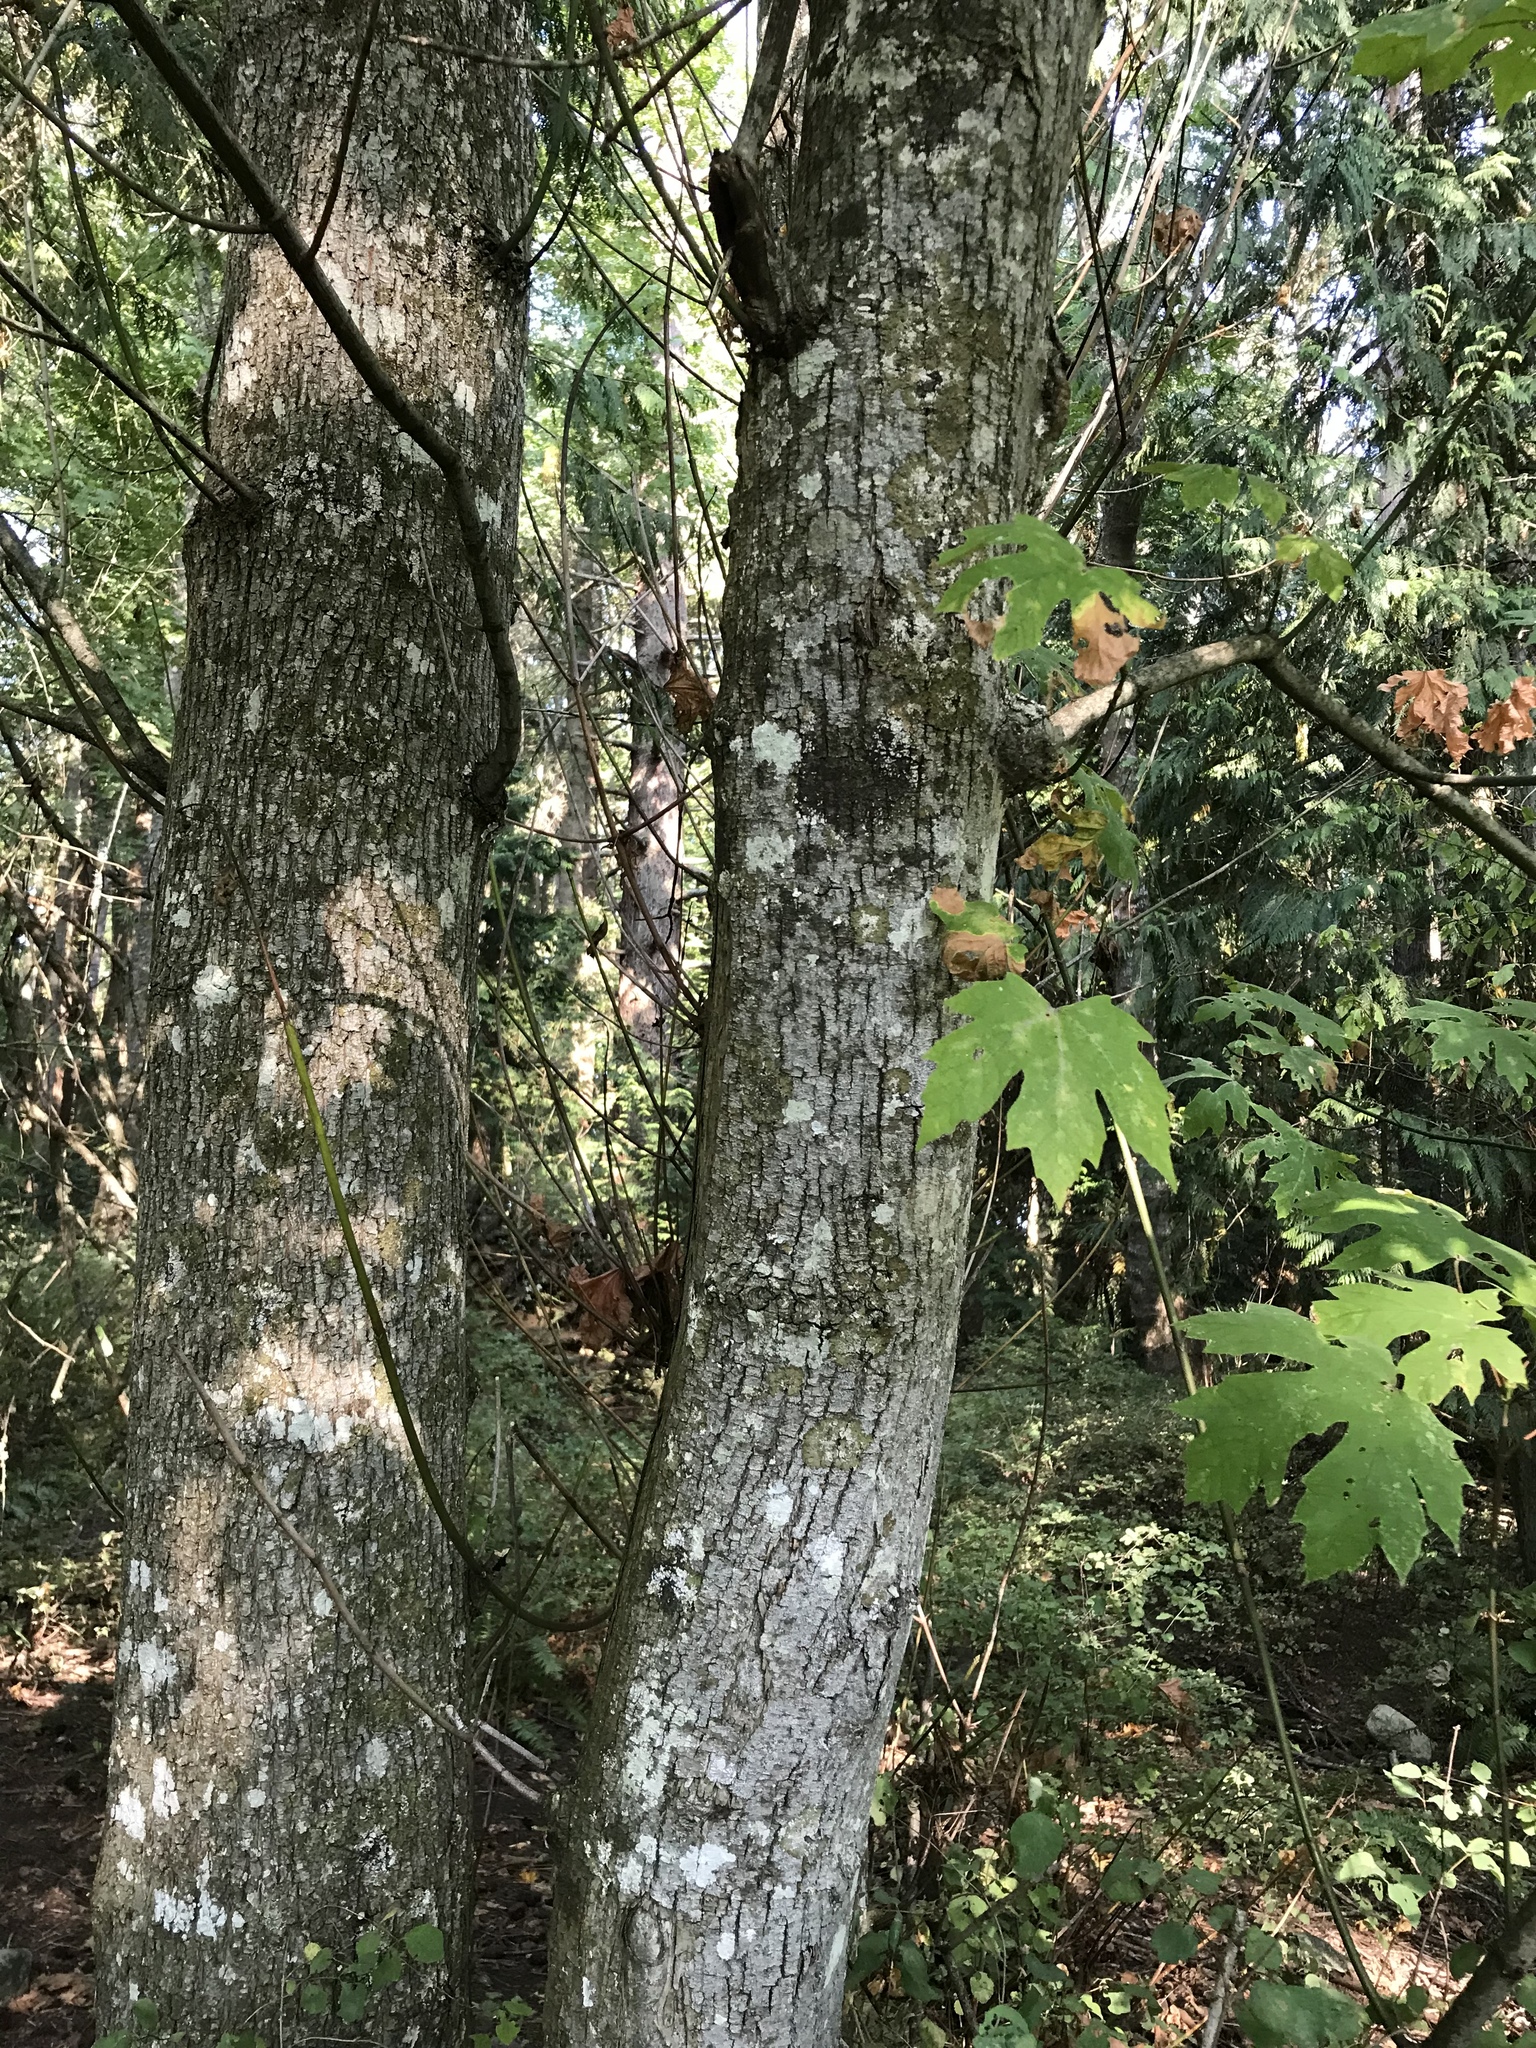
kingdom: Plantae
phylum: Tracheophyta
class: Magnoliopsida
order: Sapindales
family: Sapindaceae
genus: Acer
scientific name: Acer macrophyllum
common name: Oregon maple
